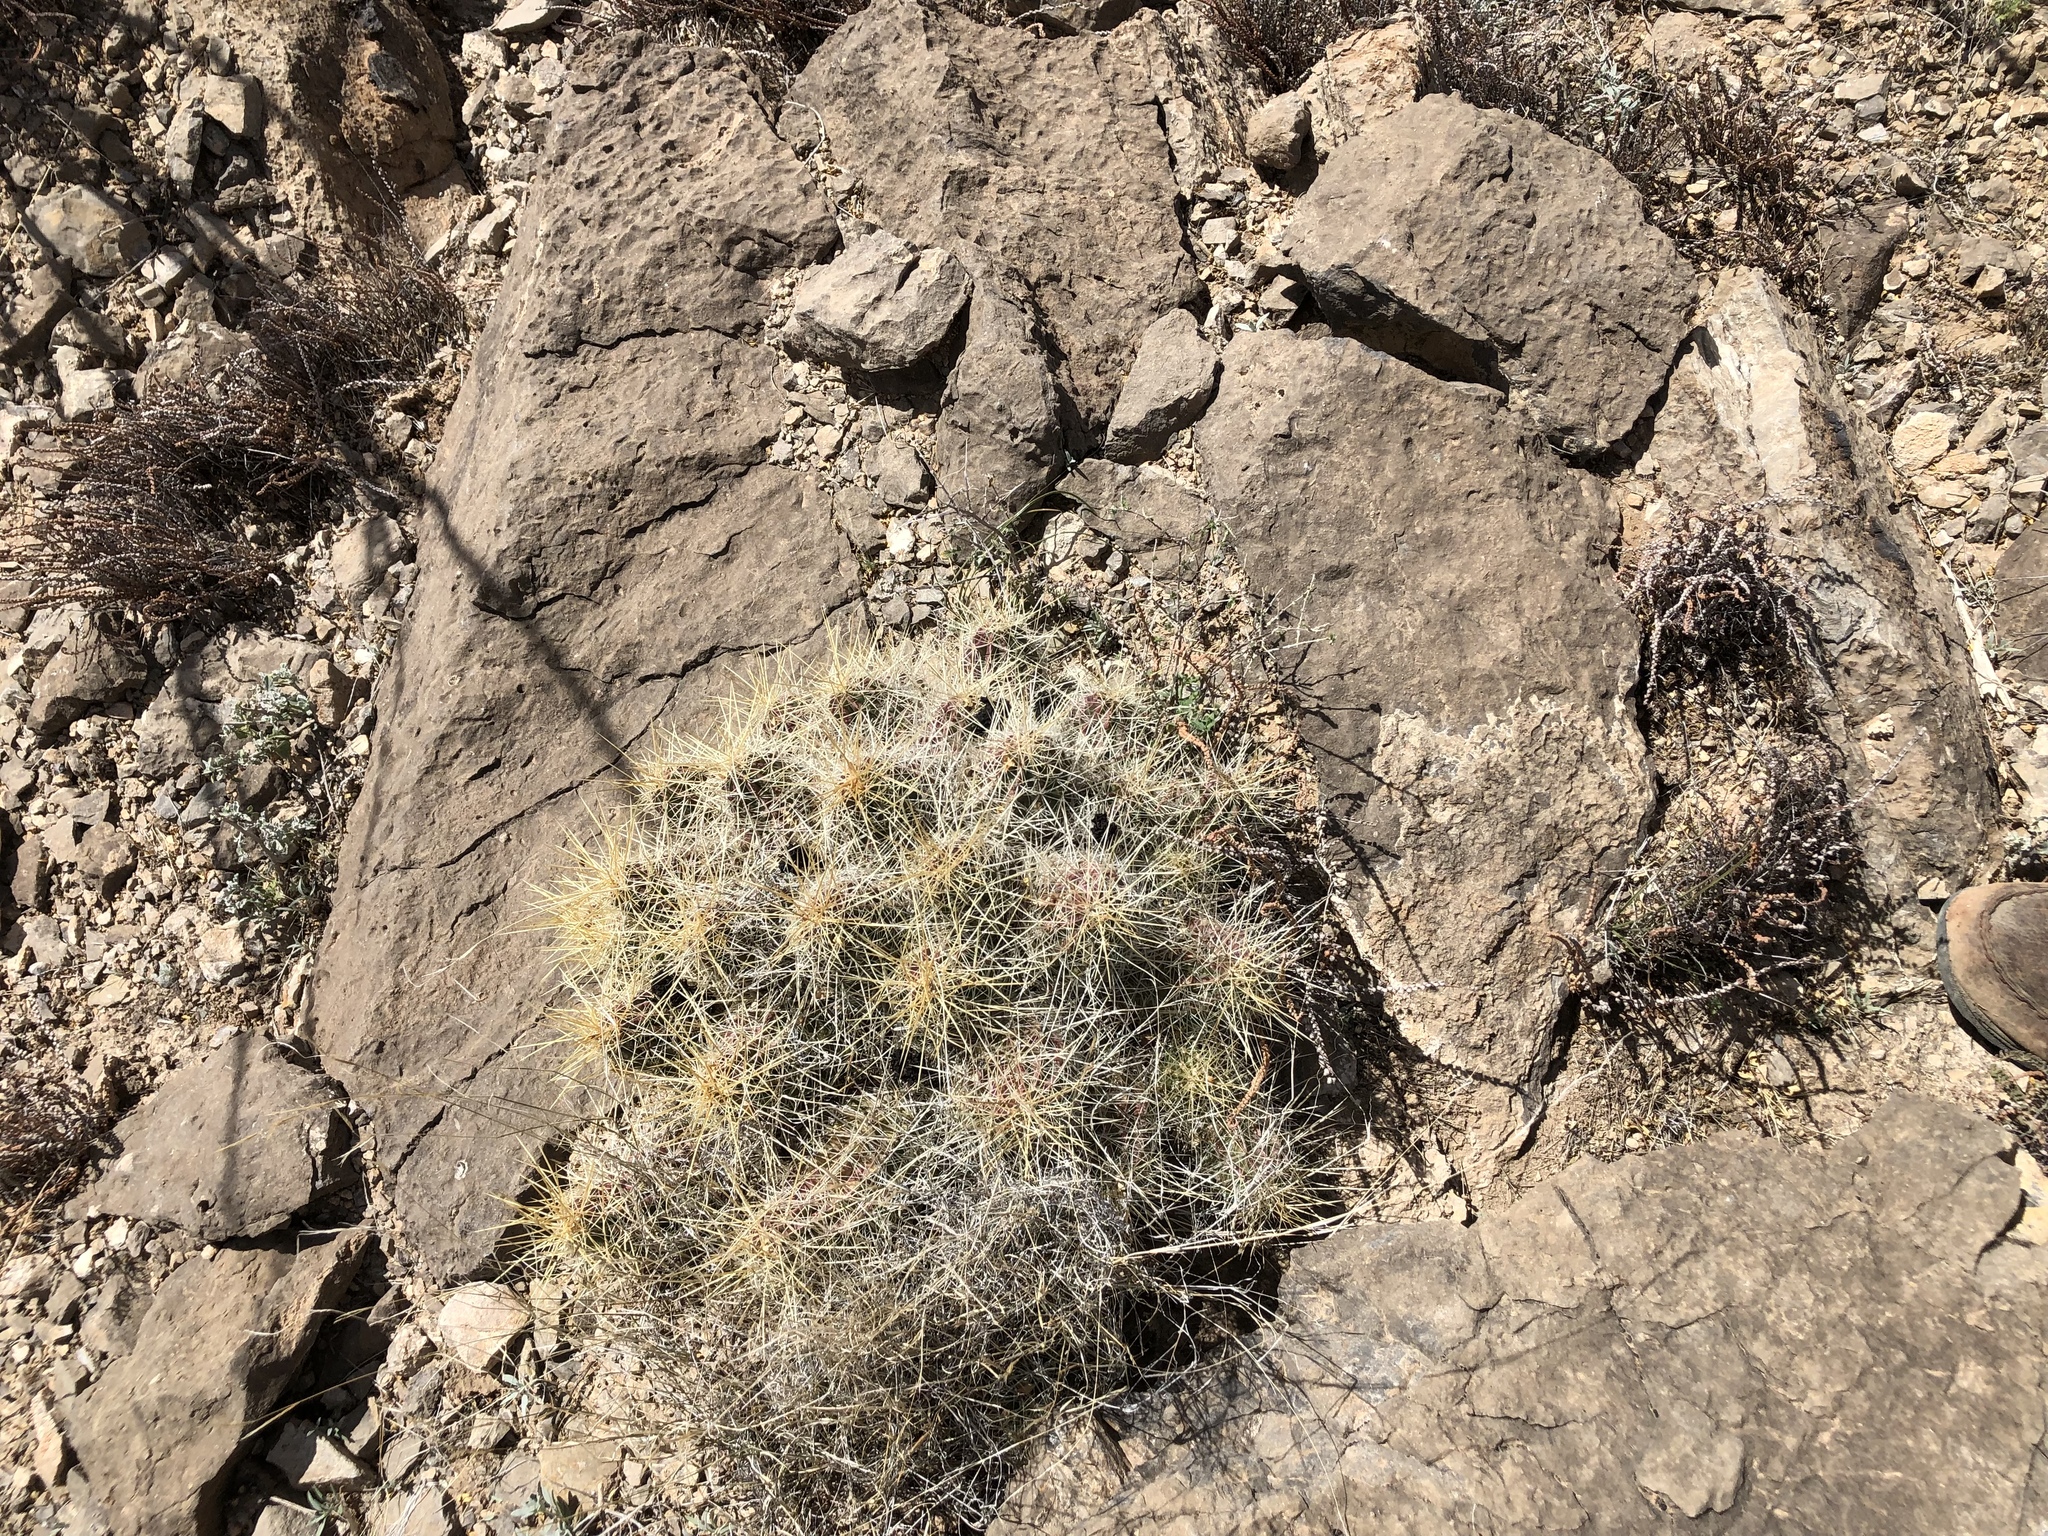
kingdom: Plantae
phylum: Tracheophyta
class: Magnoliopsida
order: Caryophyllales
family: Cactaceae
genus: Echinocereus
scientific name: Echinocereus stramineus
